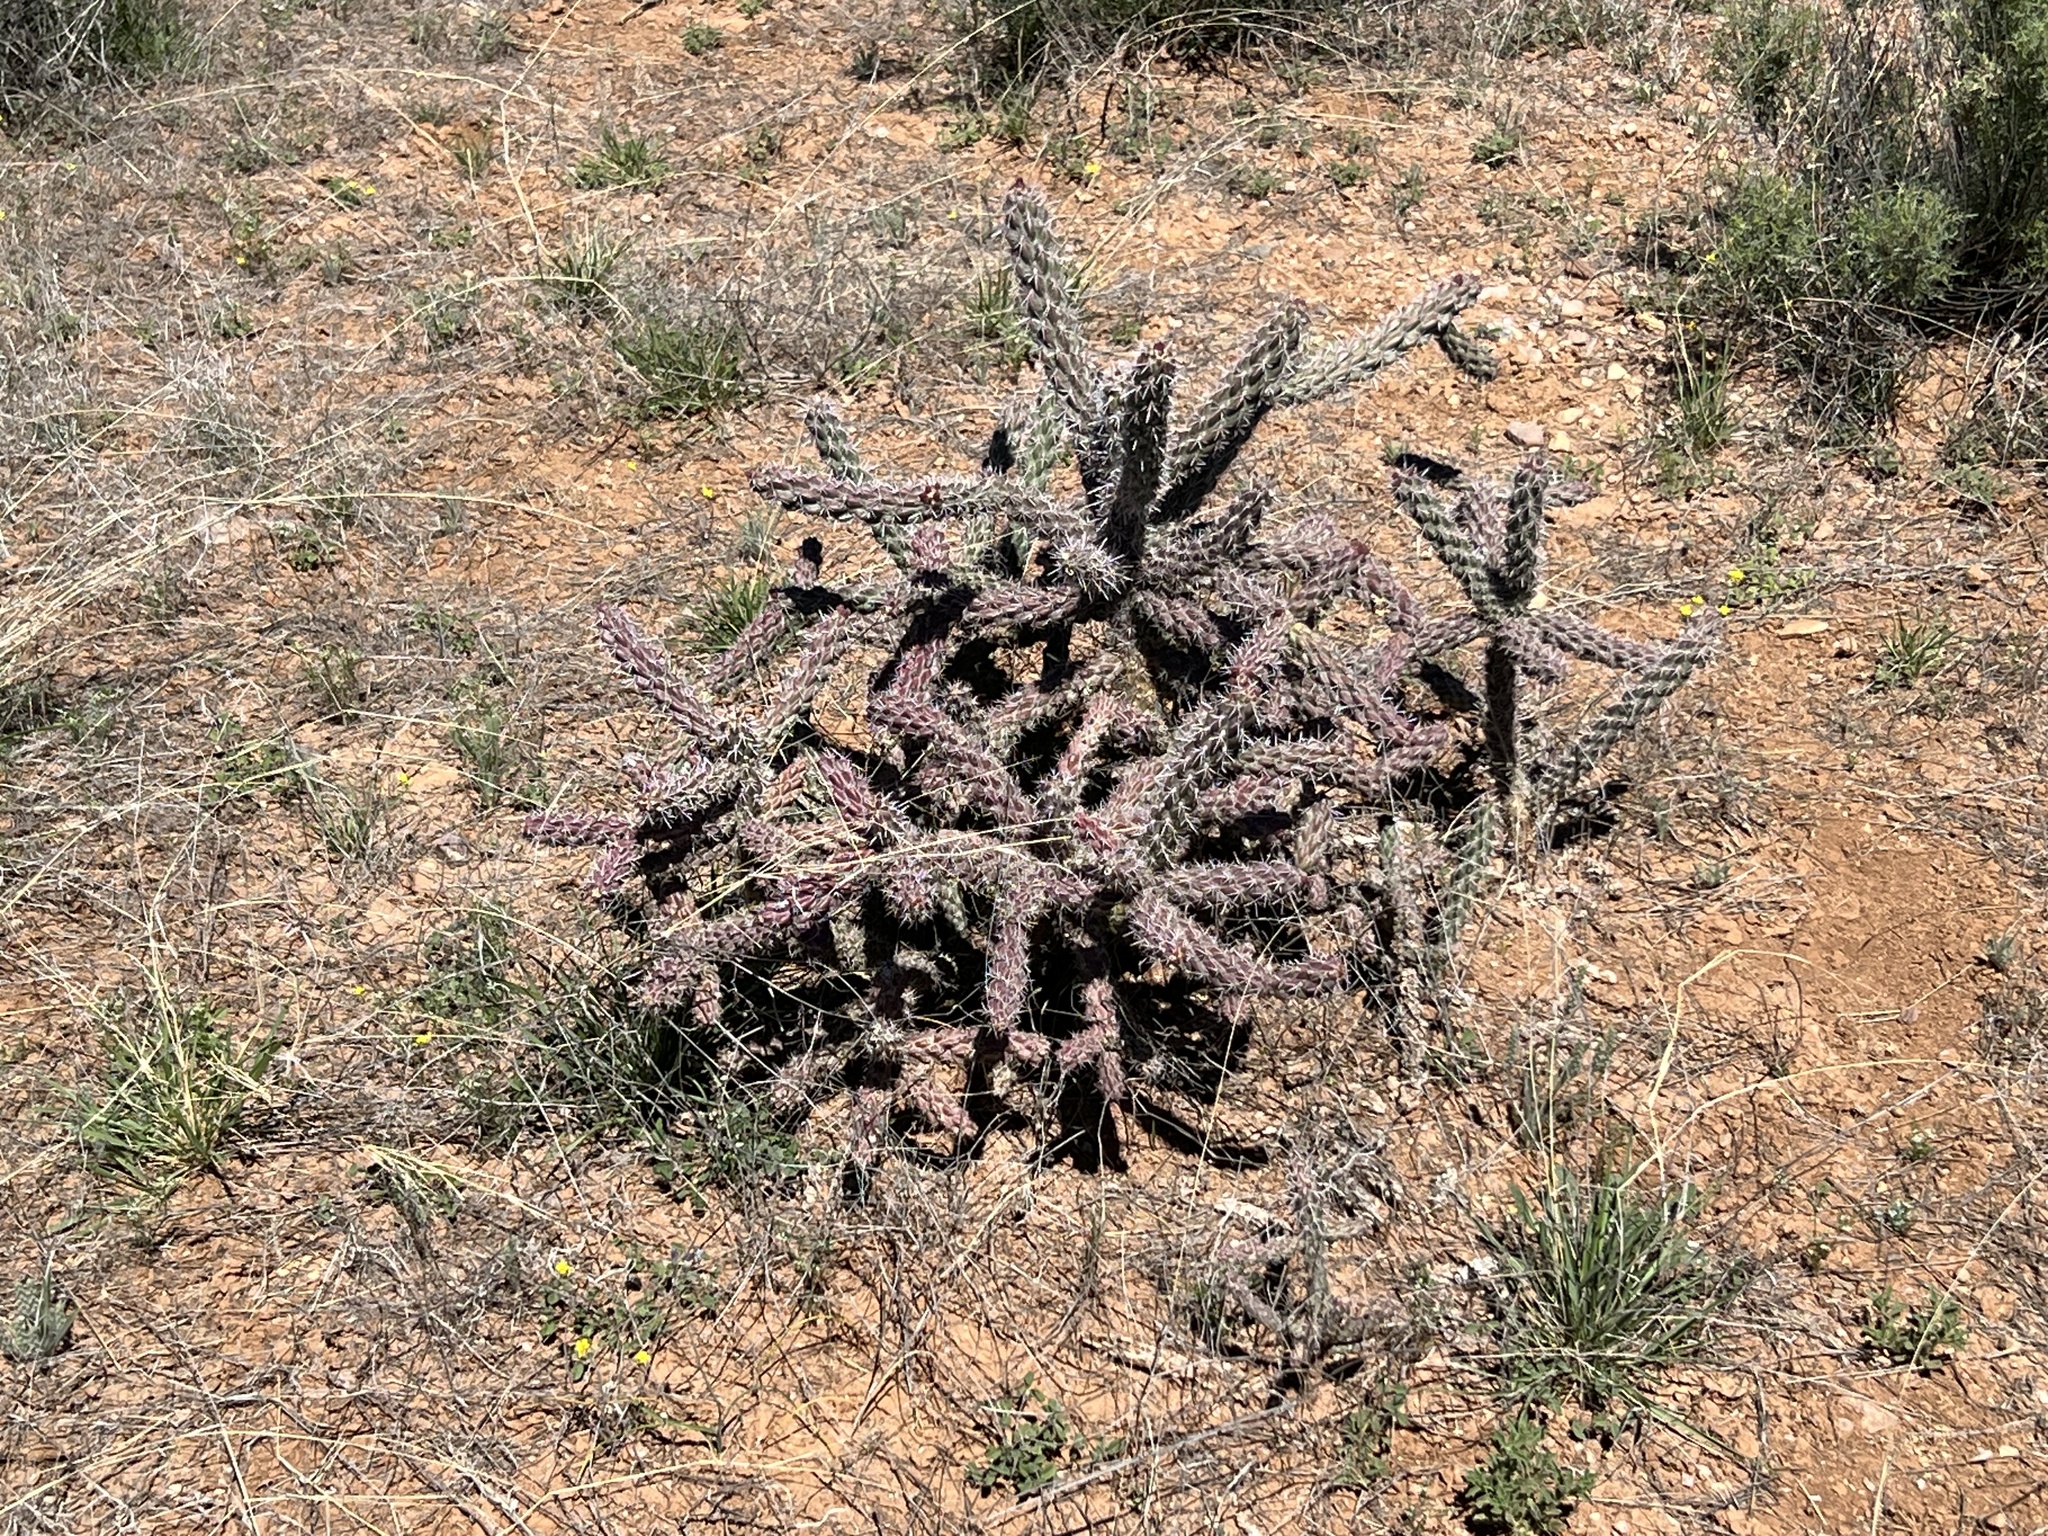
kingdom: Plantae
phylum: Tracheophyta
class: Magnoliopsida
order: Caryophyllales
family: Cactaceae
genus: Cylindropuntia
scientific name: Cylindropuntia imbricata
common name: Candelabrum cactus
